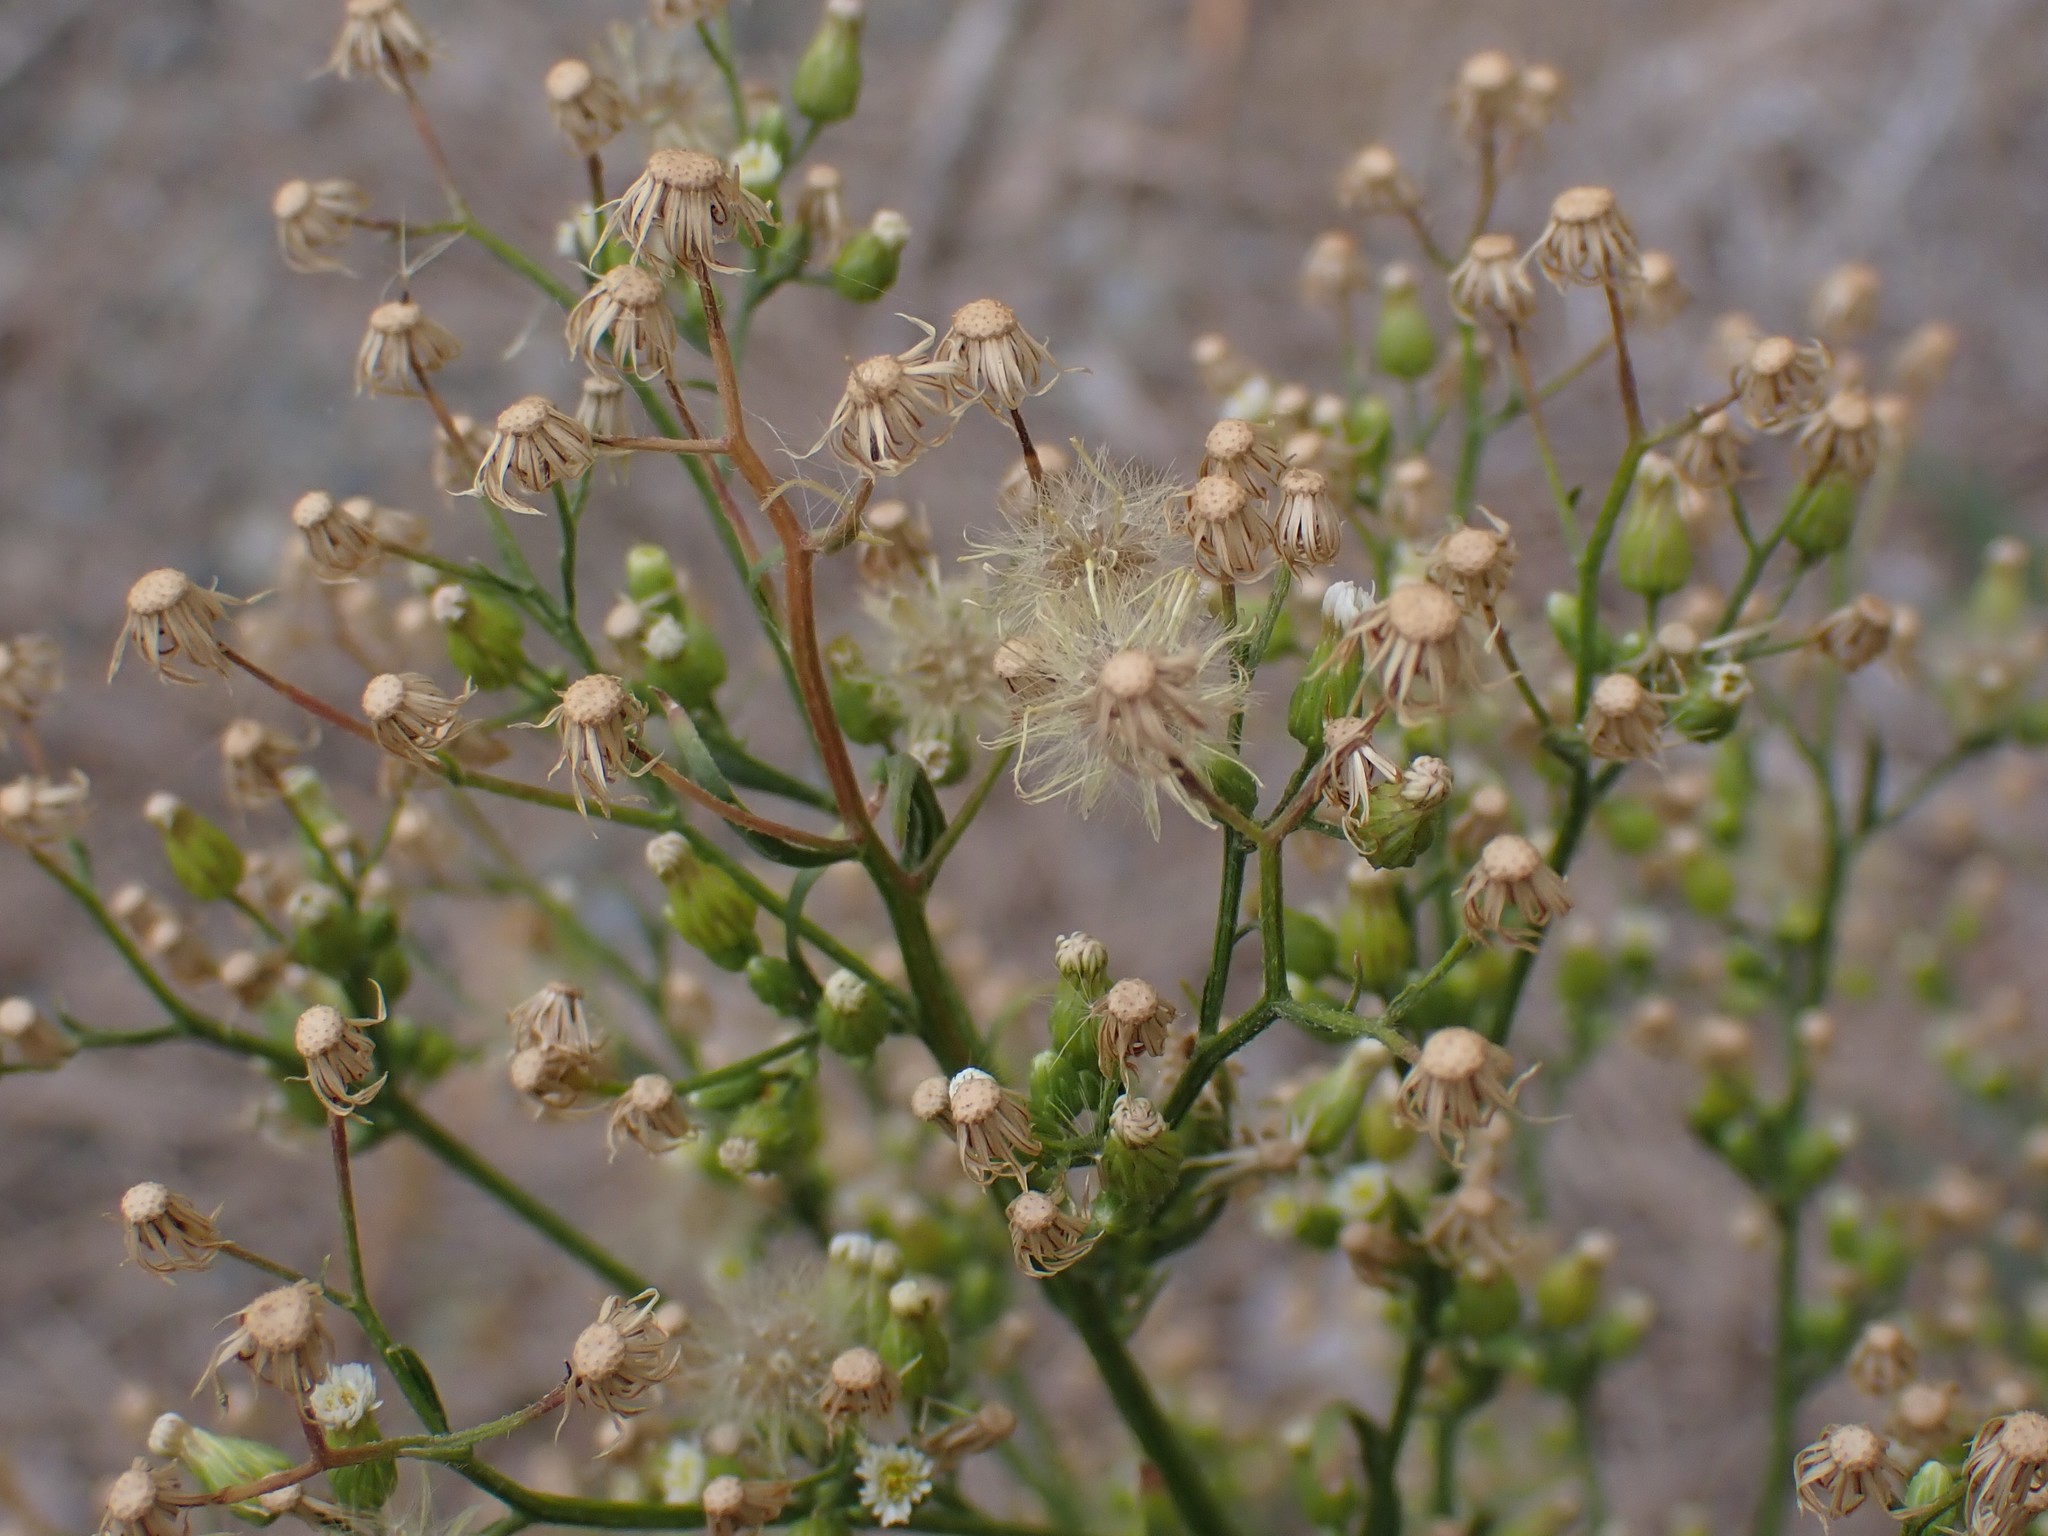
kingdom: Plantae
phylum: Tracheophyta
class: Magnoliopsida
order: Asterales
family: Asteraceae
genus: Erigeron
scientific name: Erigeron canadensis
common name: Canadian fleabane
